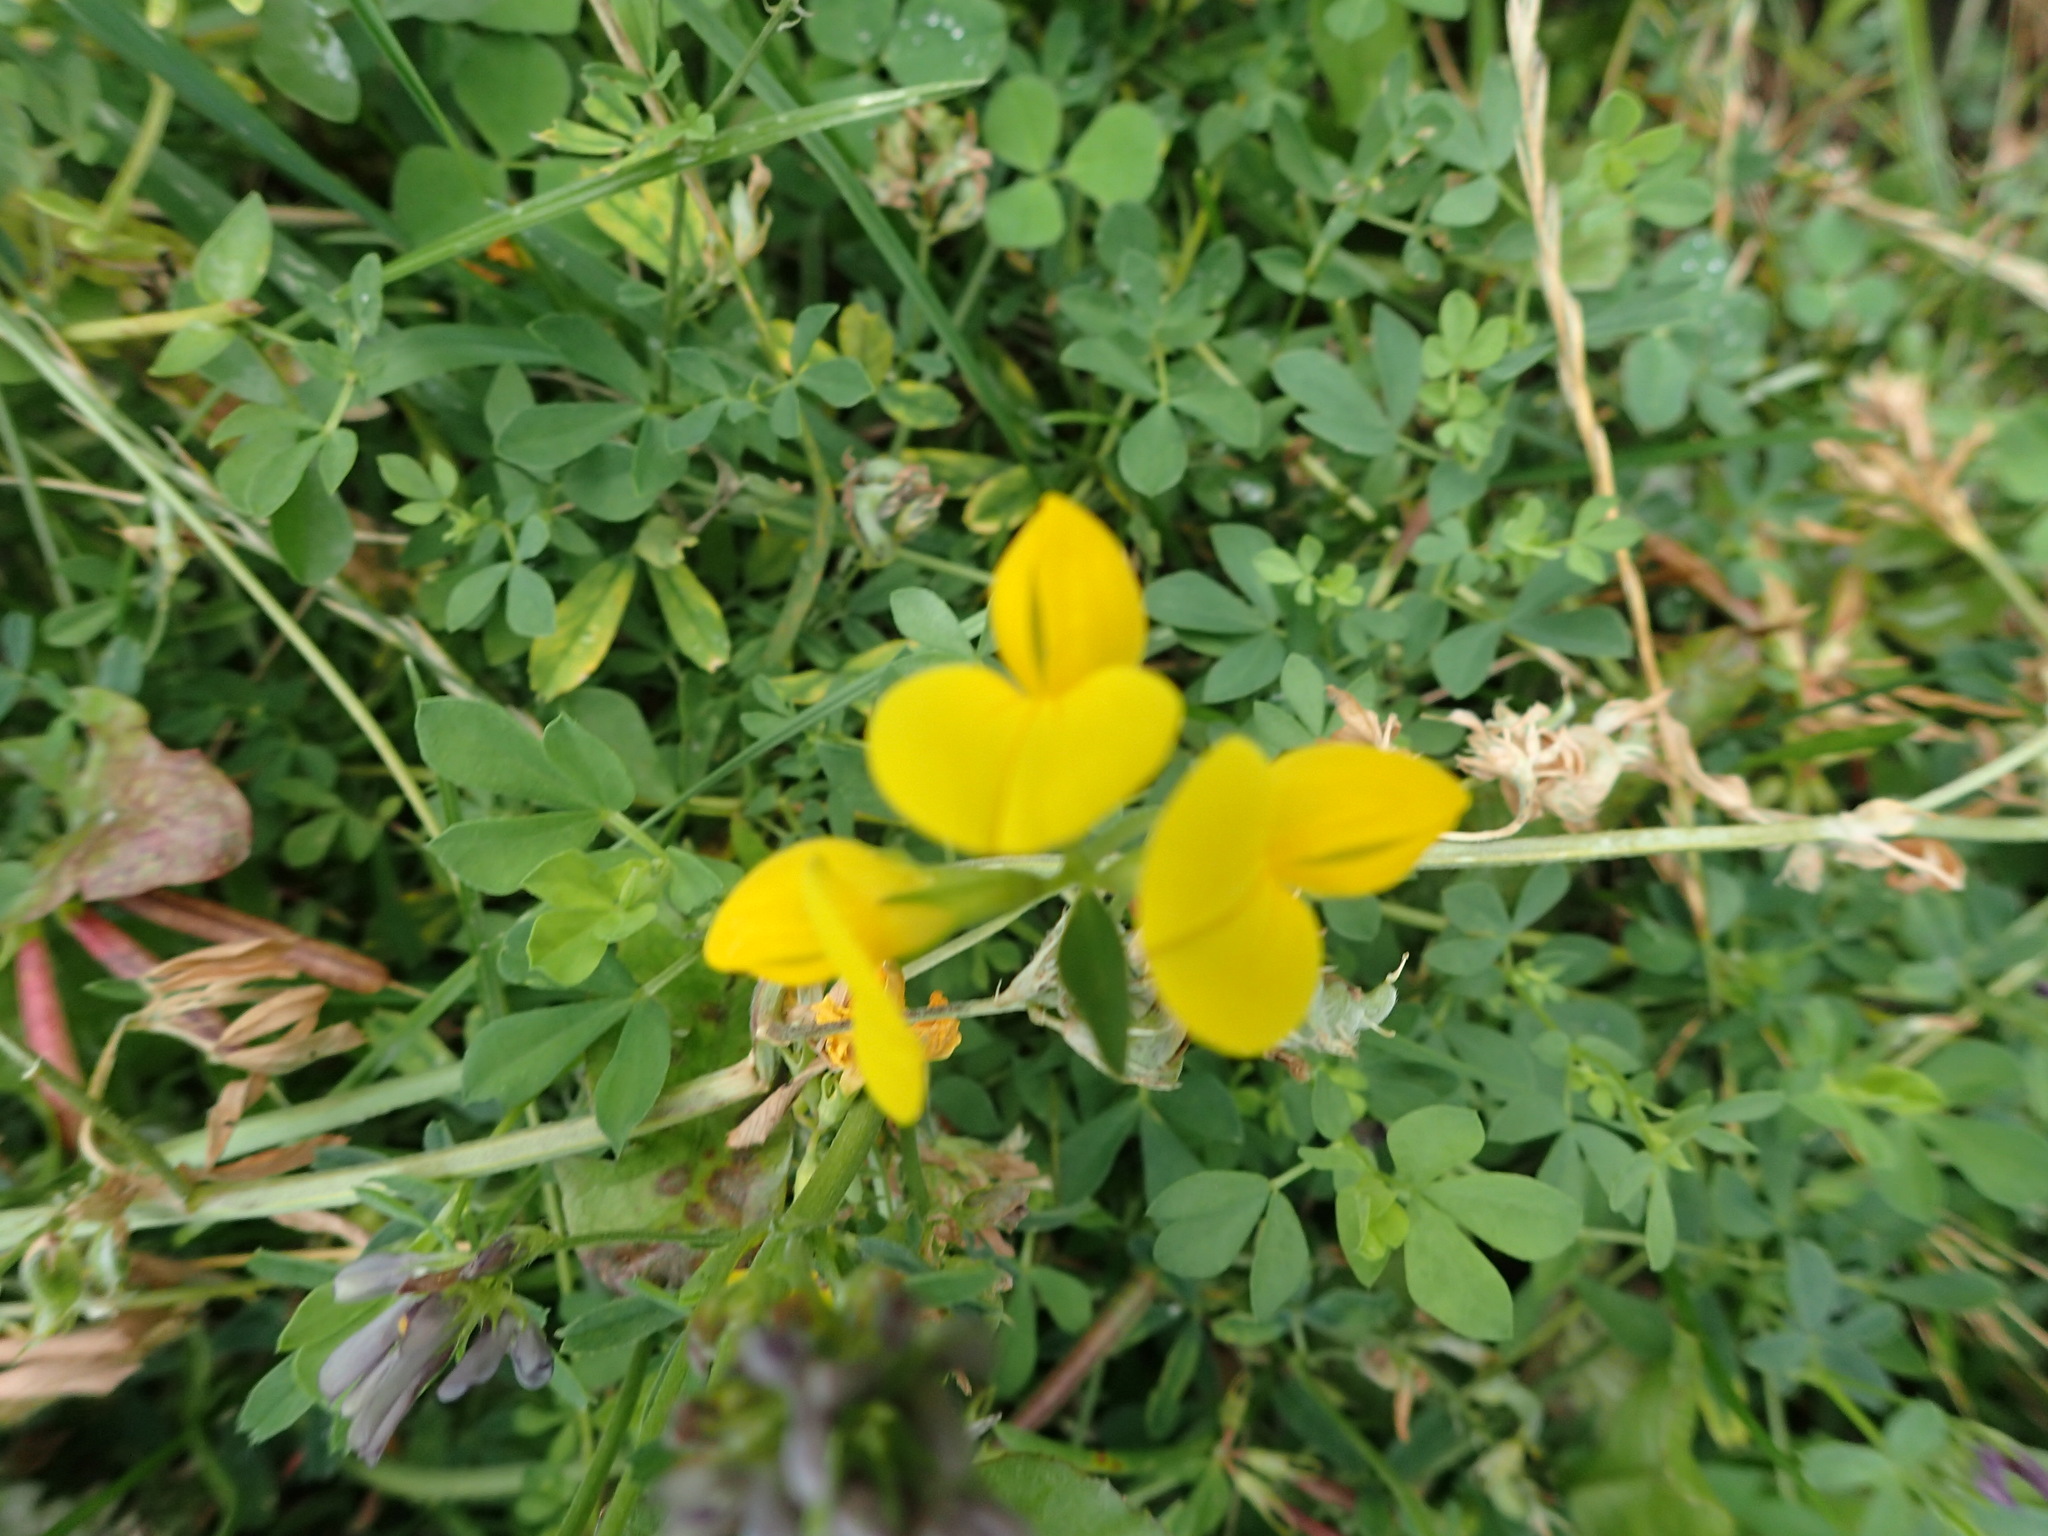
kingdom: Plantae
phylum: Tracheophyta
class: Magnoliopsida
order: Fabales
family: Fabaceae
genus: Lotus
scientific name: Lotus corniculatus
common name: Common bird's-foot-trefoil
